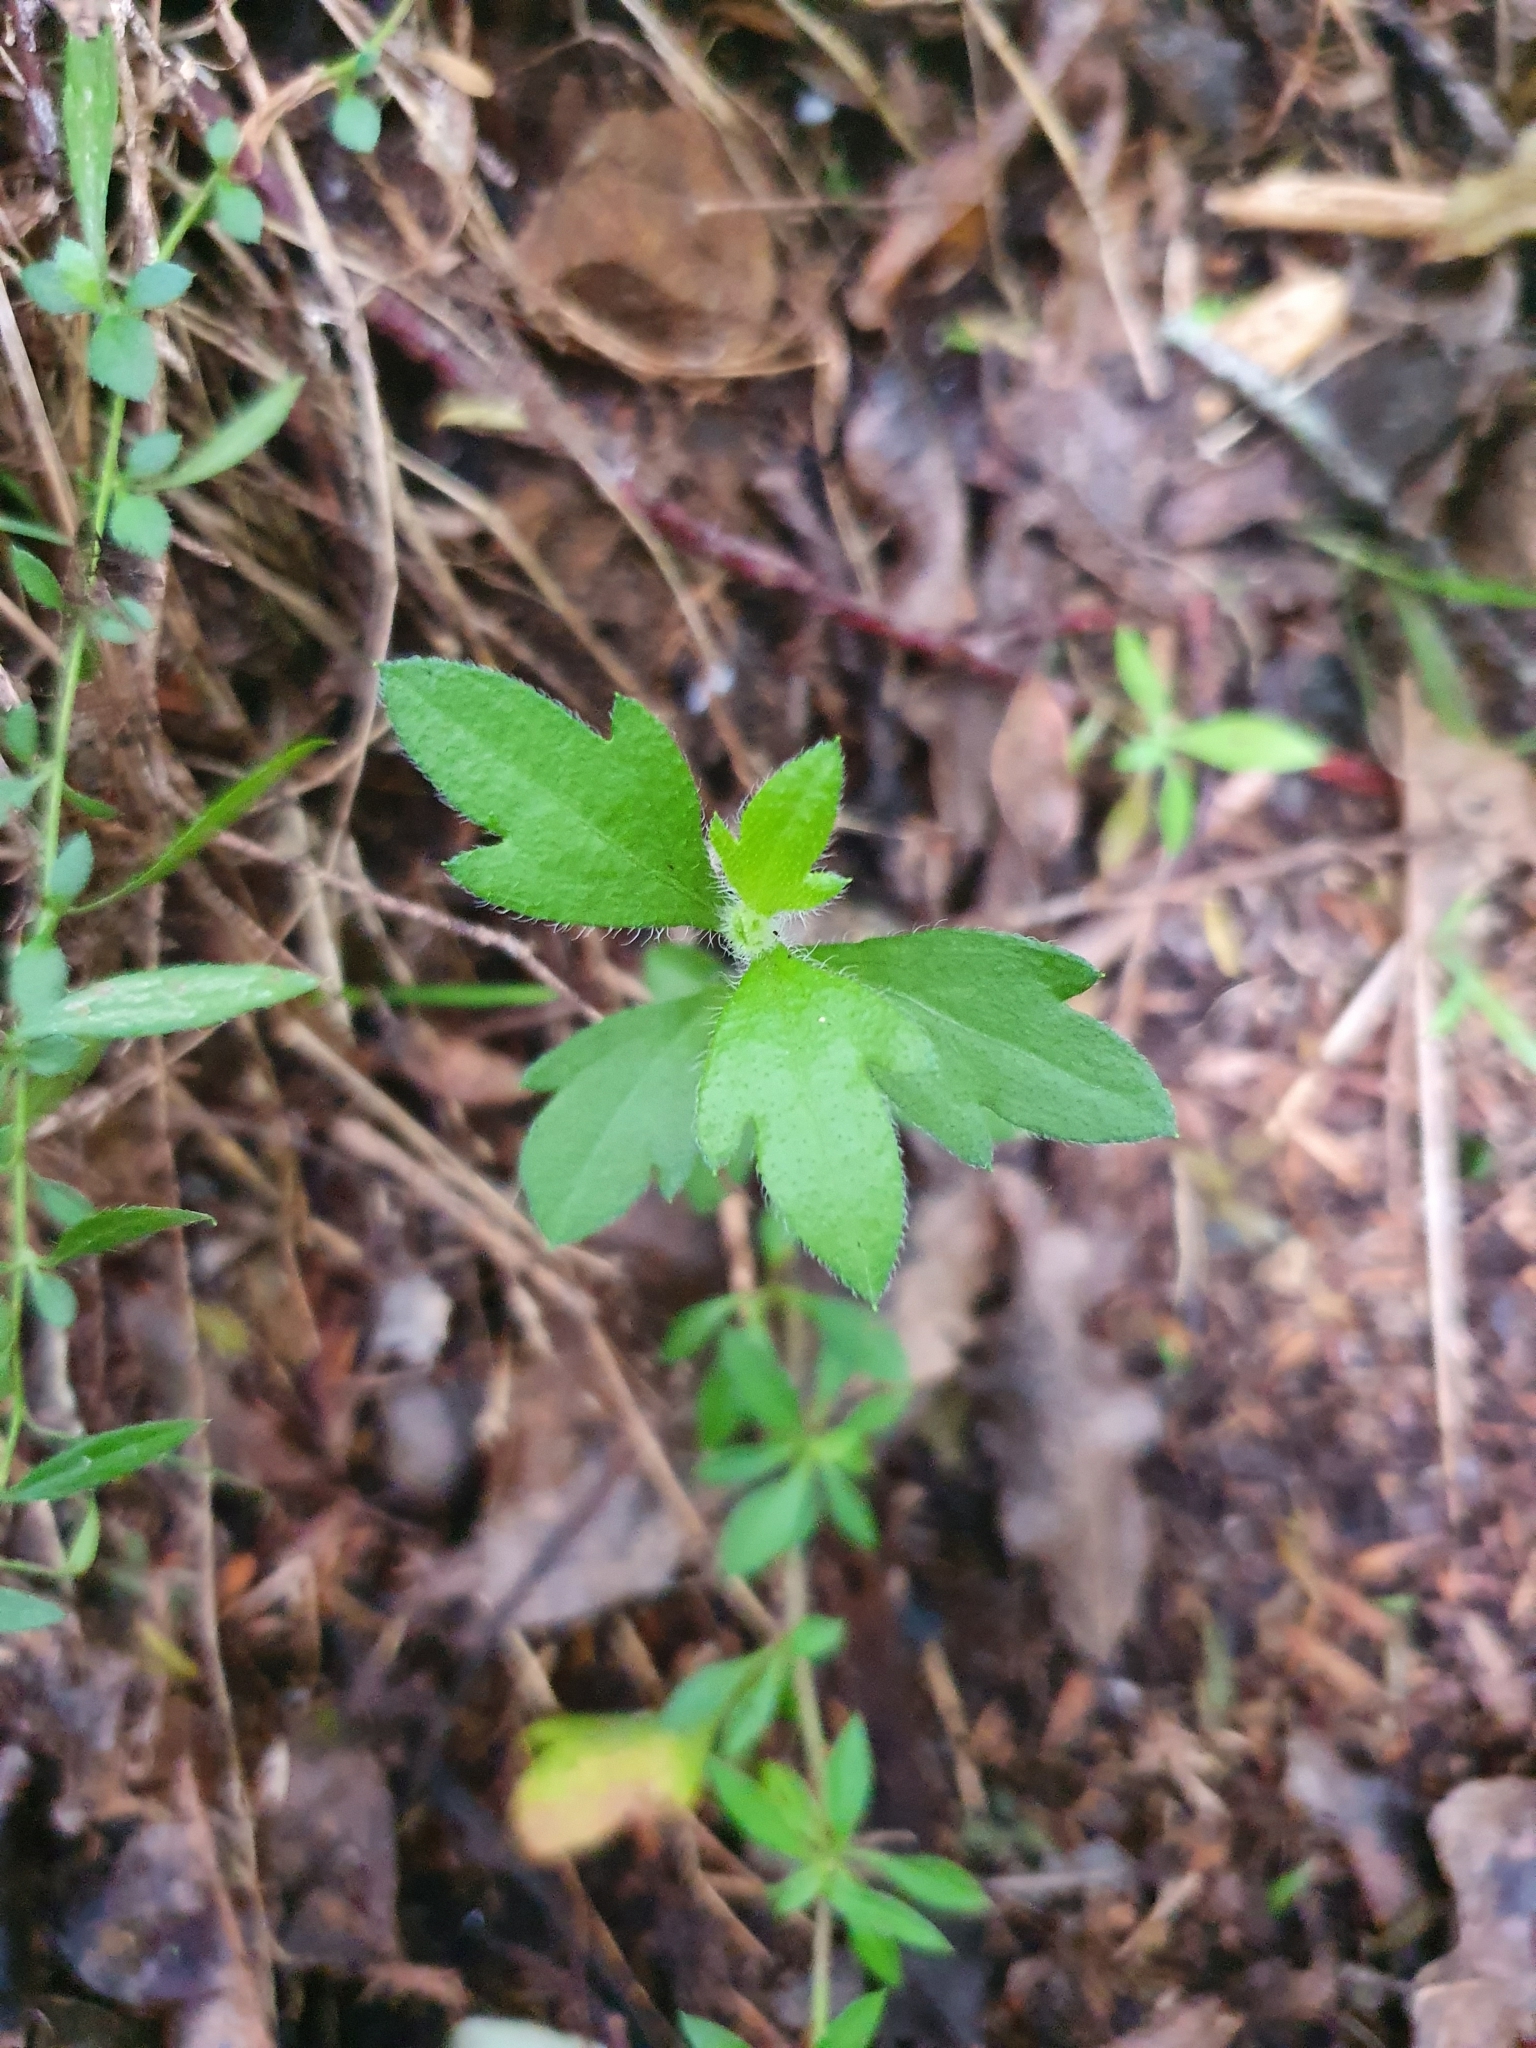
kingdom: Plantae
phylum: Tracheophyta
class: Magnoliopsida
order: Asterales
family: Asteraceae
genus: Erigeron
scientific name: Erigeron karvinskianus
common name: Mexican fleabane
